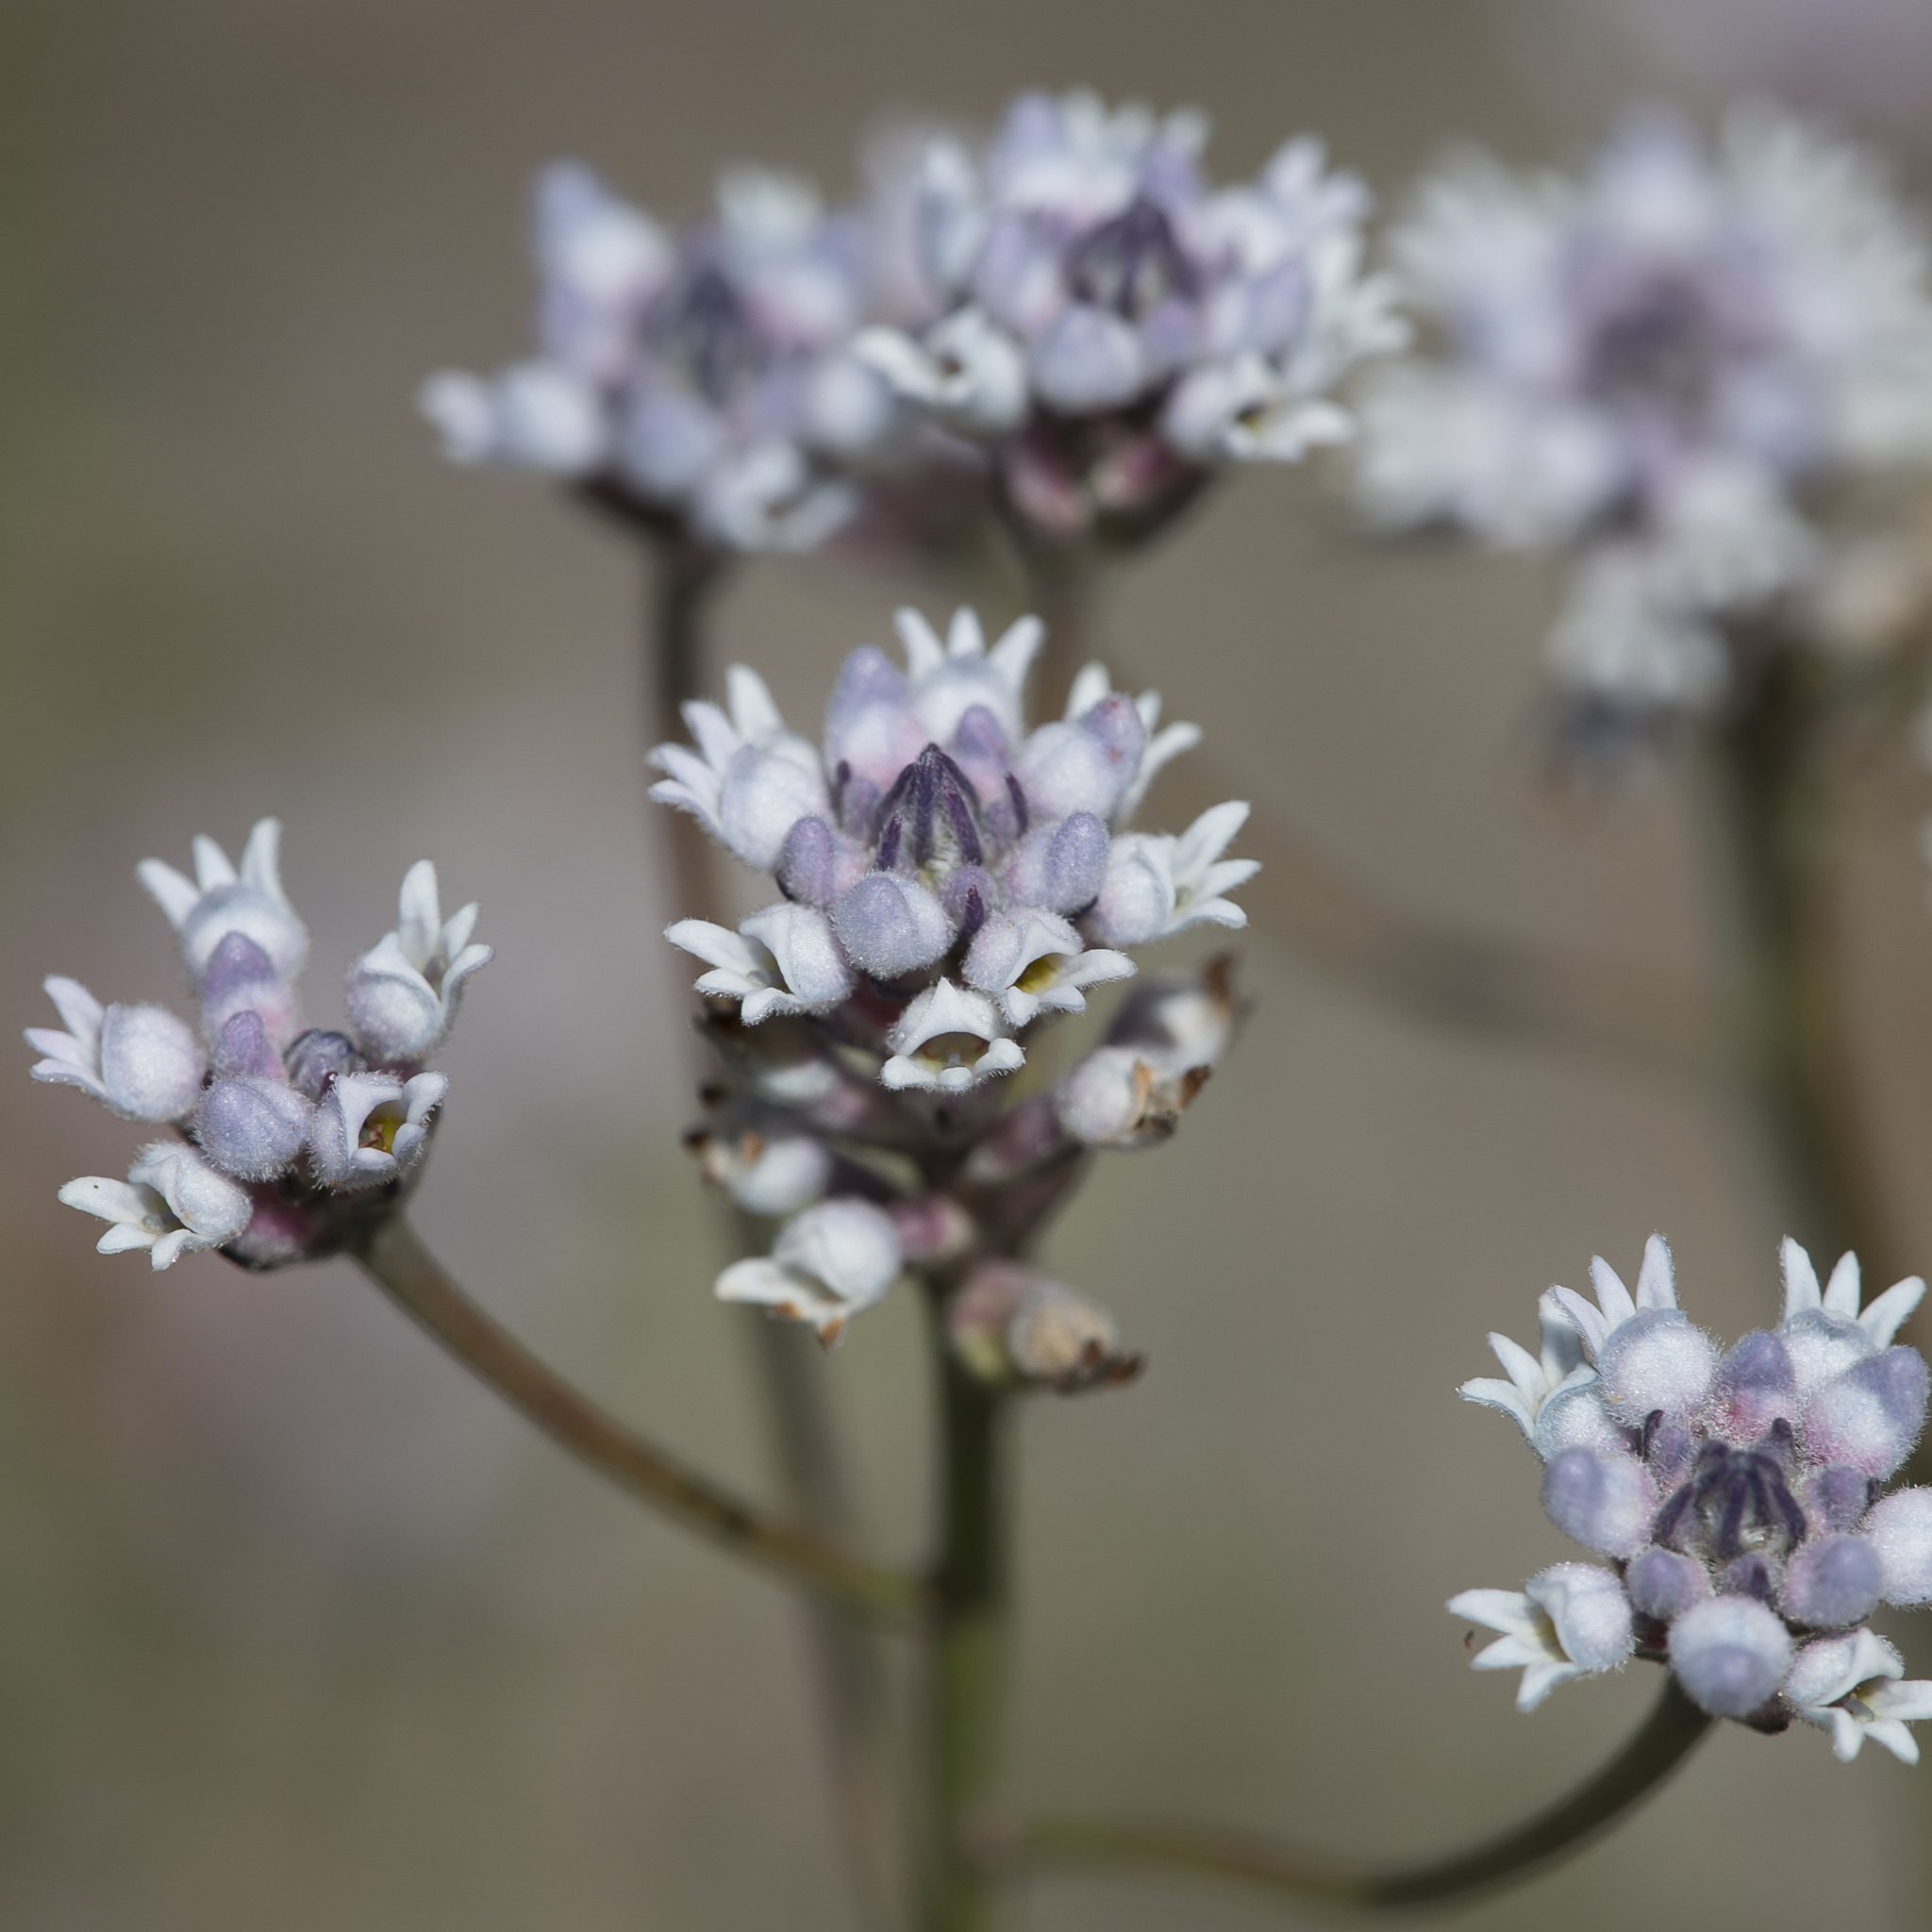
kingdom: Plantae
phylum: Tracheophyta
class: Magnoliopsida
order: Proteales
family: Proteaceae
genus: Conospermum
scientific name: Conospermum patens
